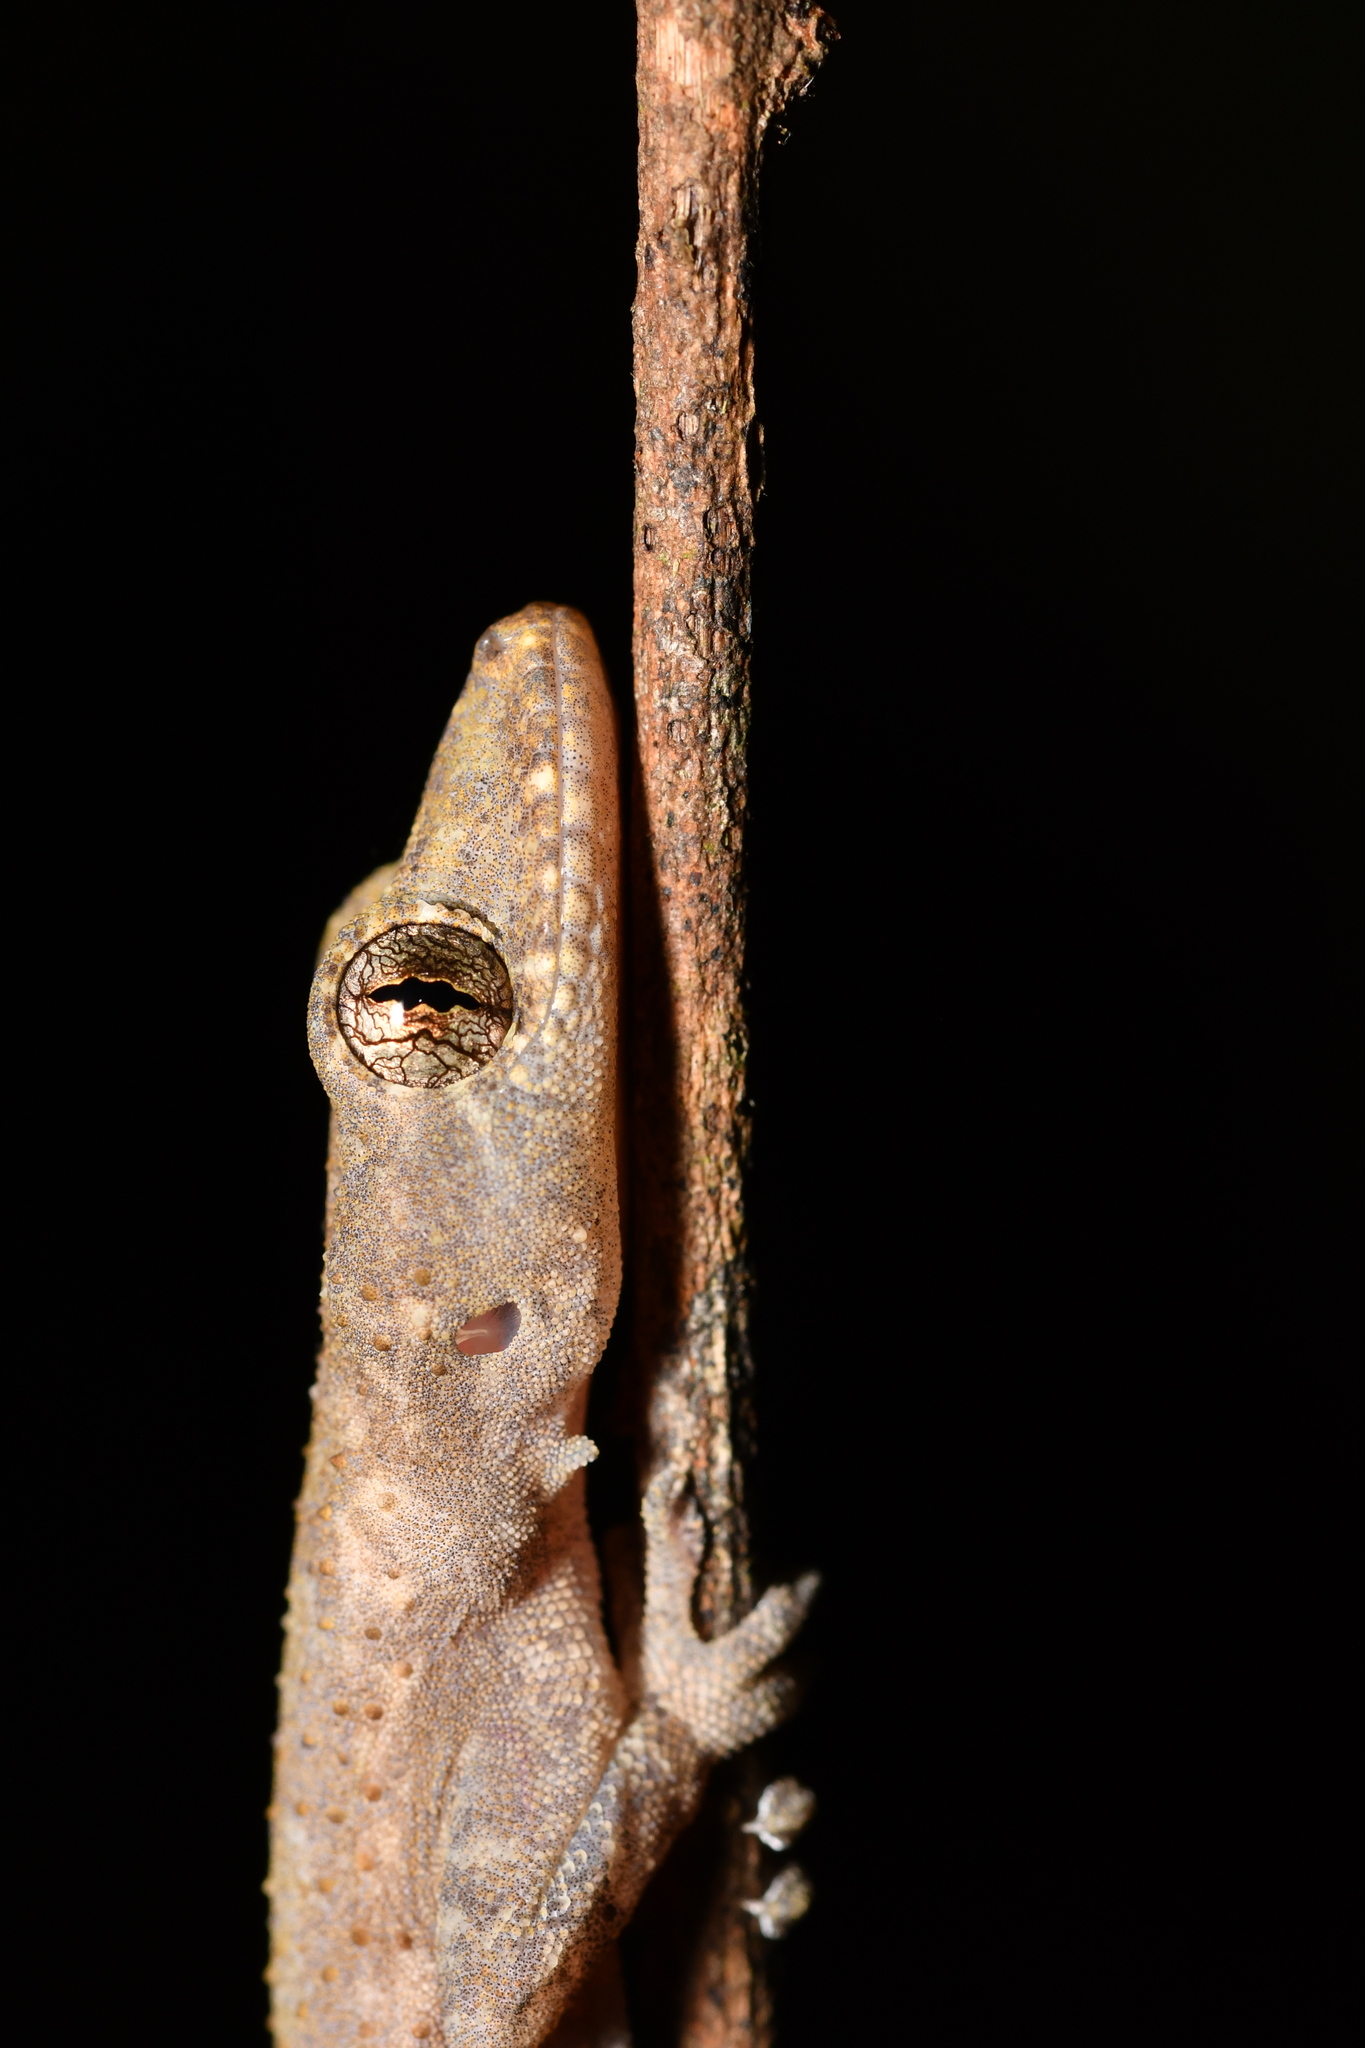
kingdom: Animalia
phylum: Chordata
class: Squamata
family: Gekkonidae
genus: Hemidactylus
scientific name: Hemidactylus ansorgii
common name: Nigeria leaf-toed gecko
